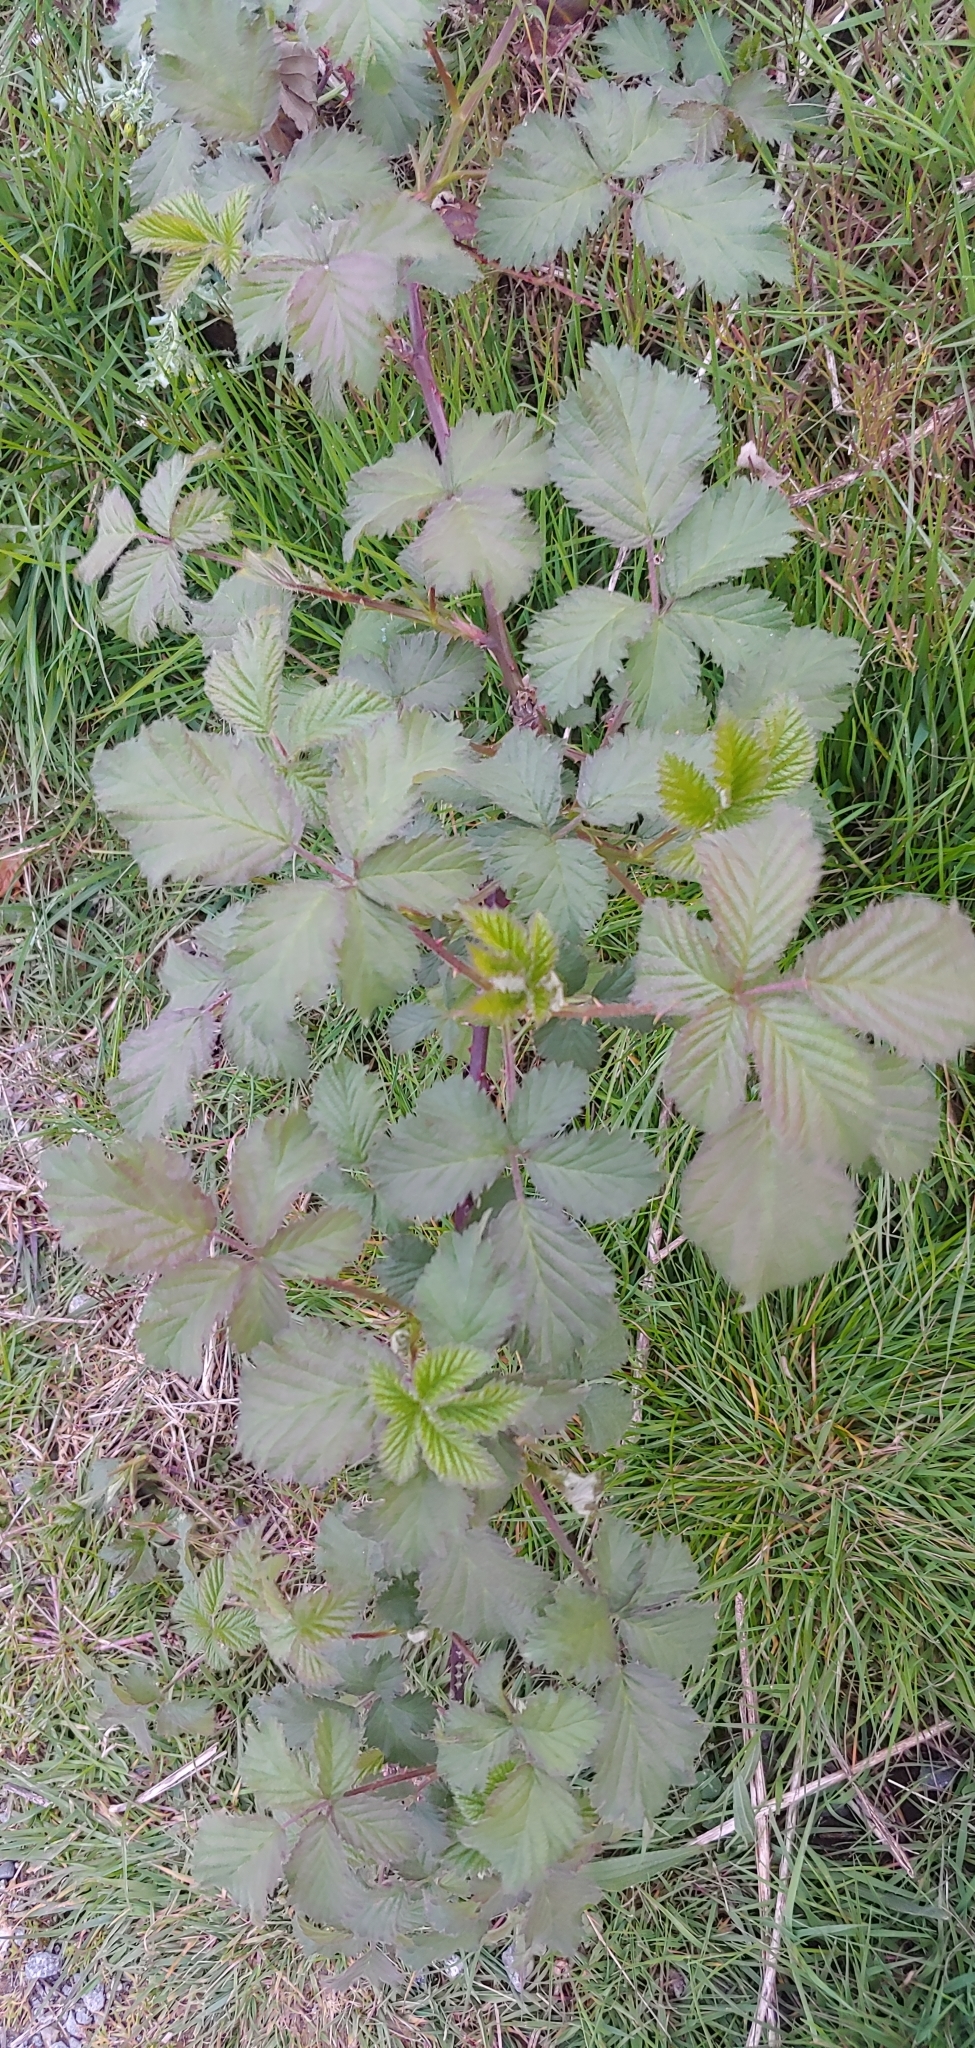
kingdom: Plantae
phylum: Tracheophyta
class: Magnoliopsida
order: Rosales
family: Rosaceae
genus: Rubus
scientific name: Rubus armeniacus
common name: Himalayan blackberry
